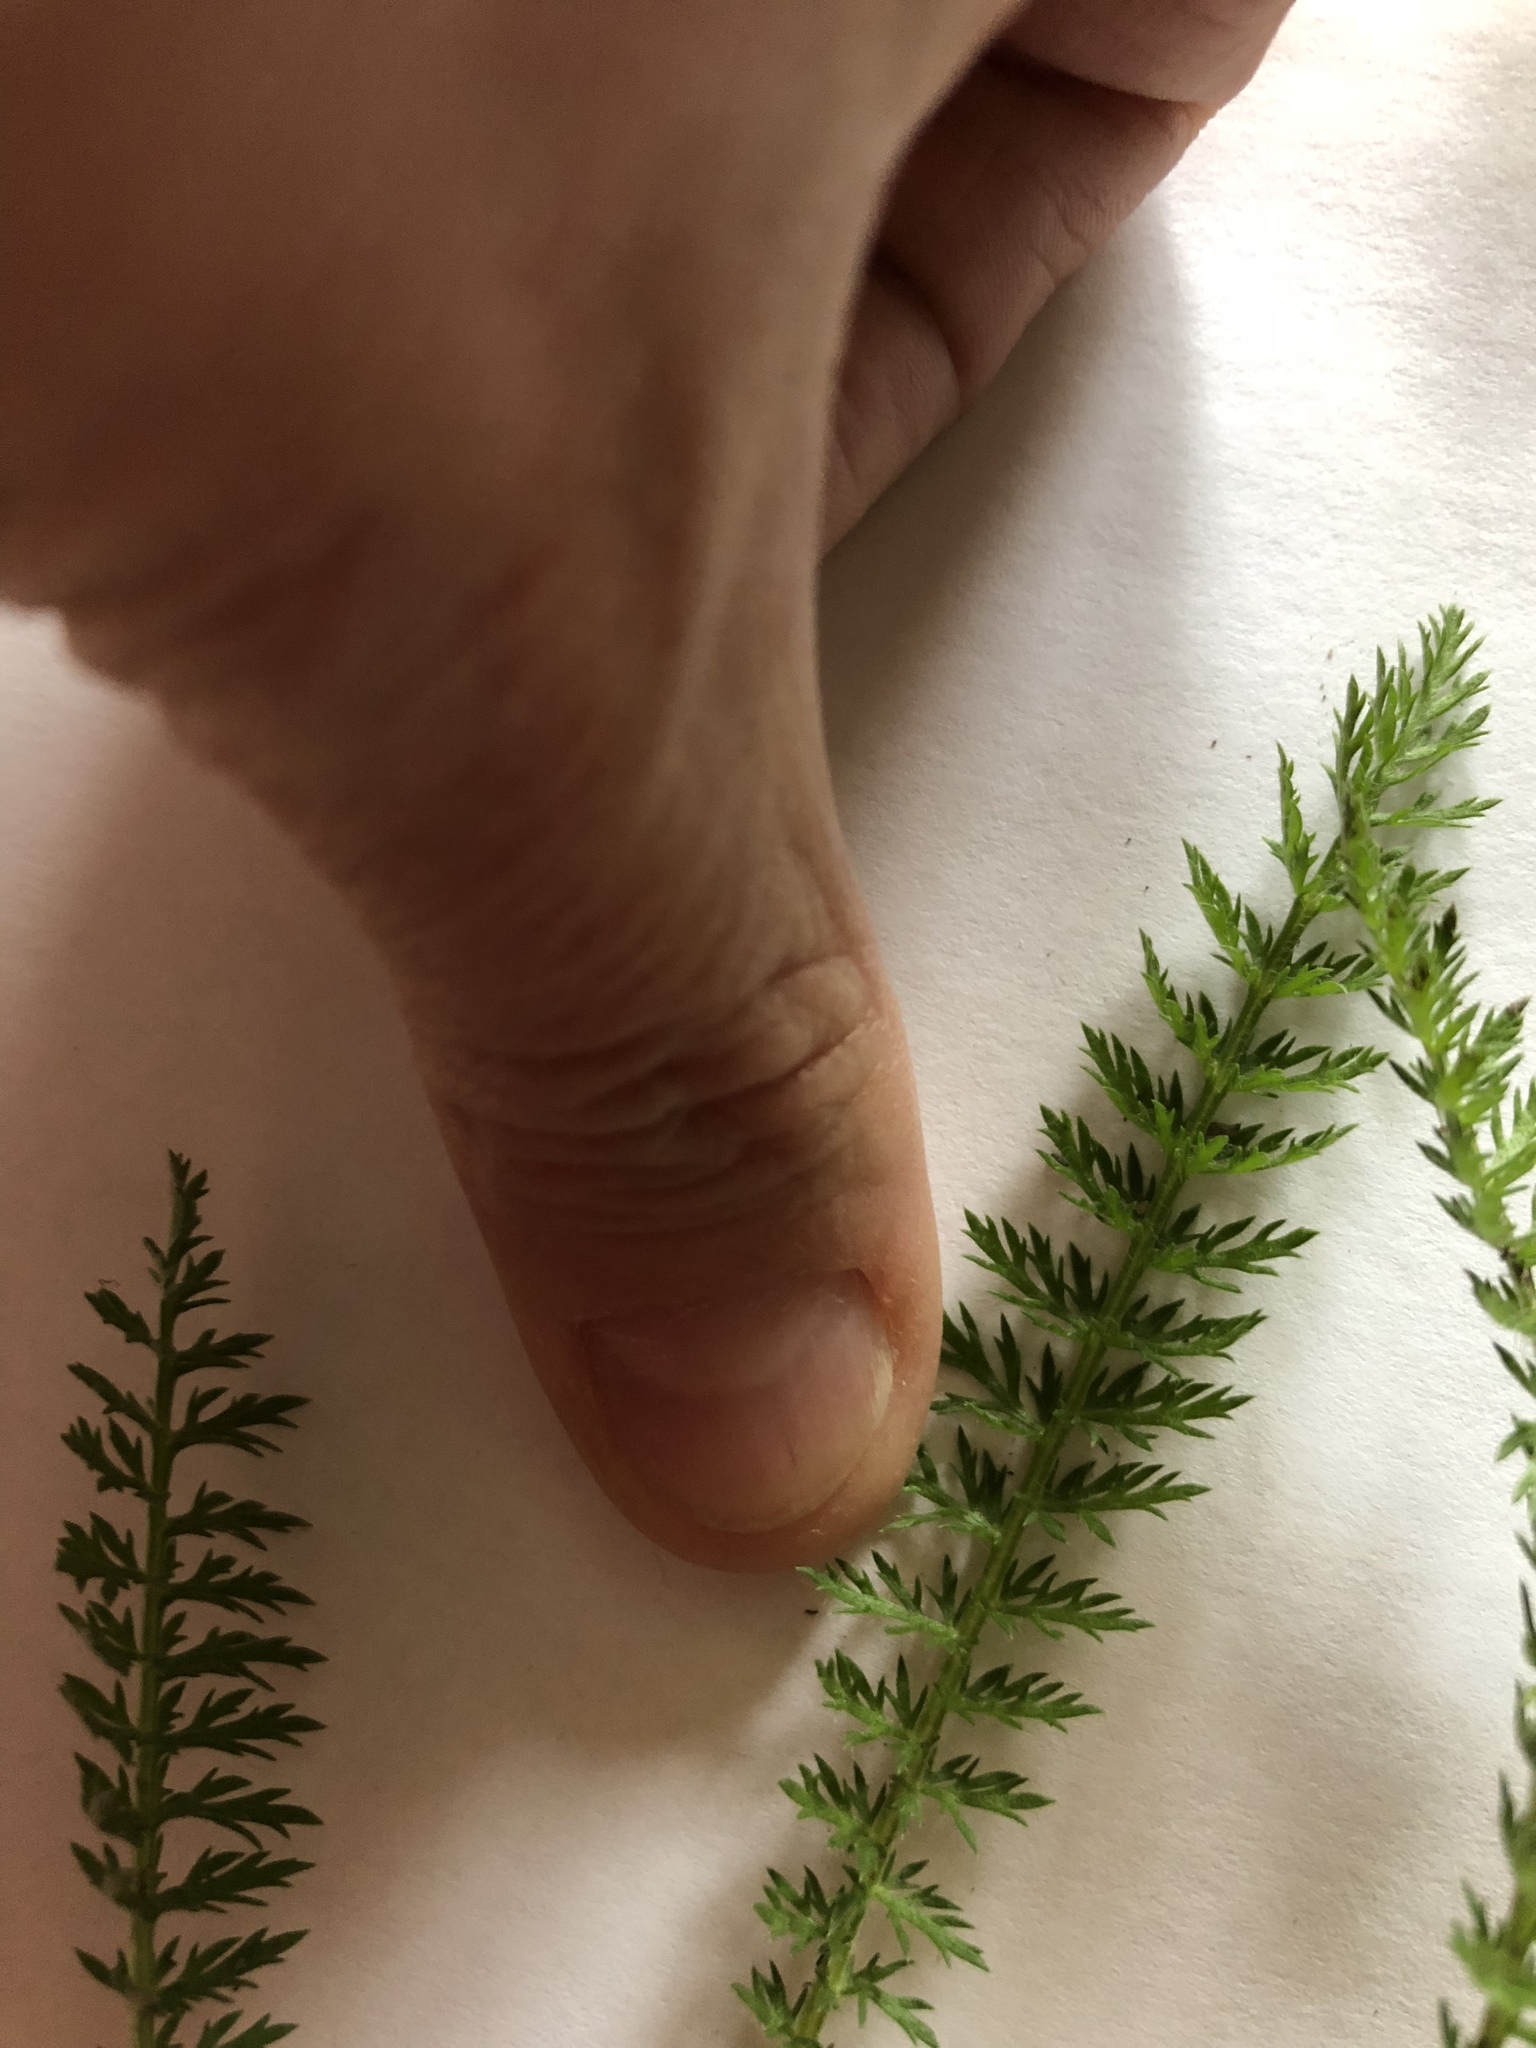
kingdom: Plantae
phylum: Tracheophyta
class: Magnoliopsida
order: Asterales
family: Asteraceae
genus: Achillea
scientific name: Achillea millefolium
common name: Yarrow
